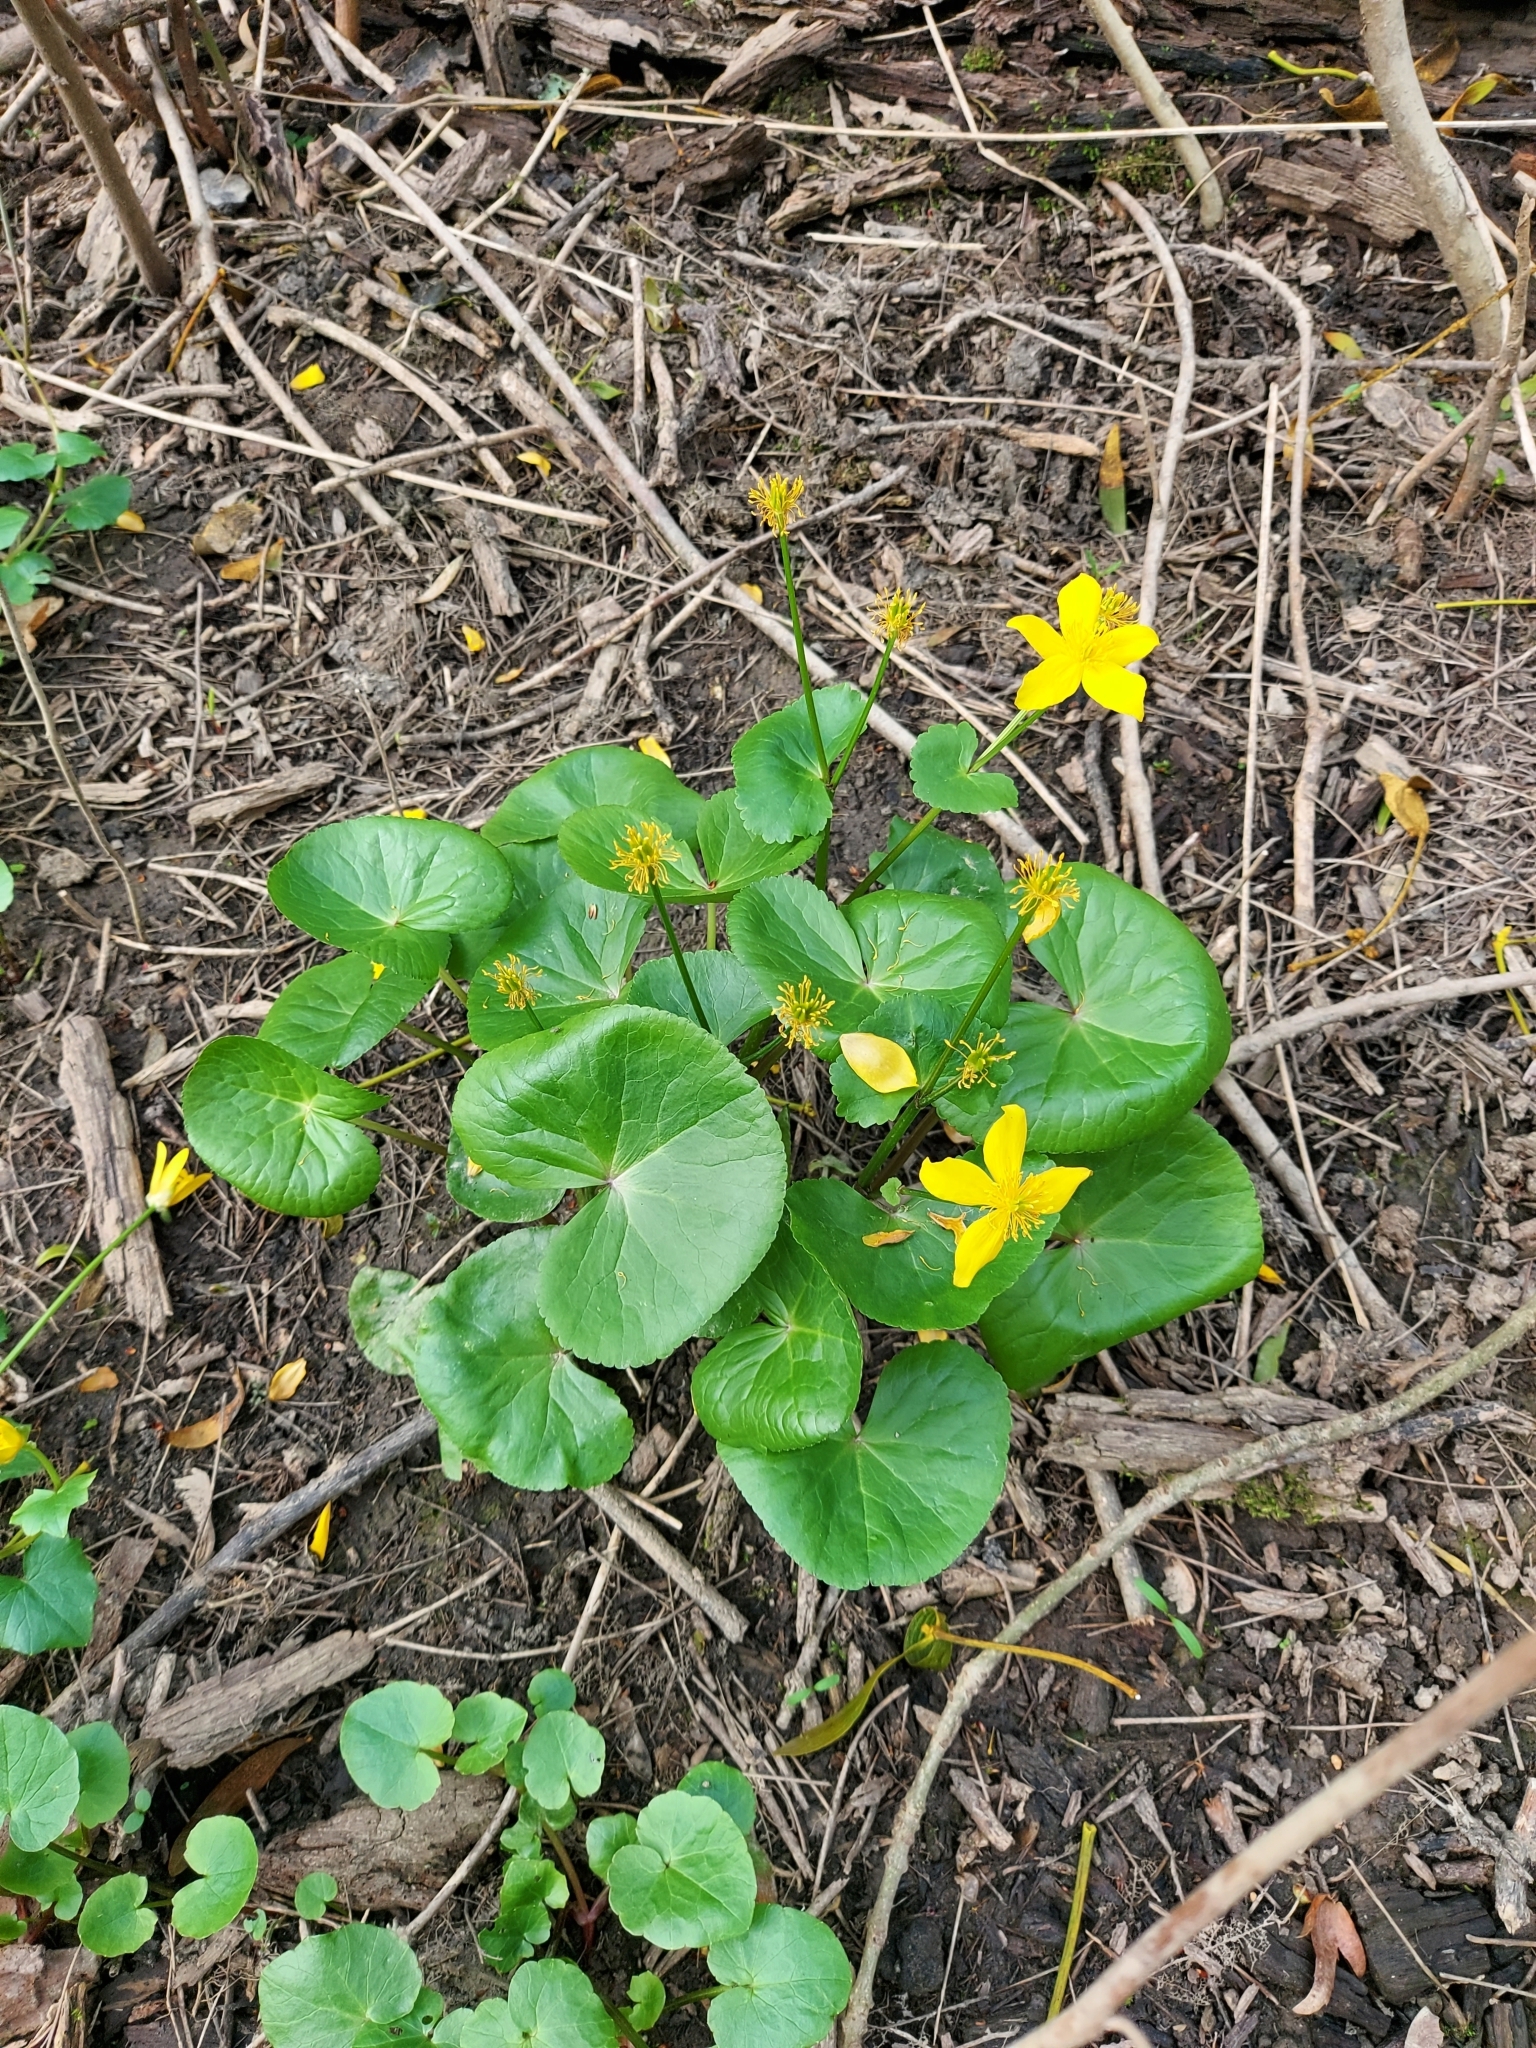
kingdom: Plantae
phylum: Tracheophyta
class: Magnoliopsida
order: Ranunculales
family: Ranunculaceae
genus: Caltha
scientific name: Caltha palustris
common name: Marsh marigold
